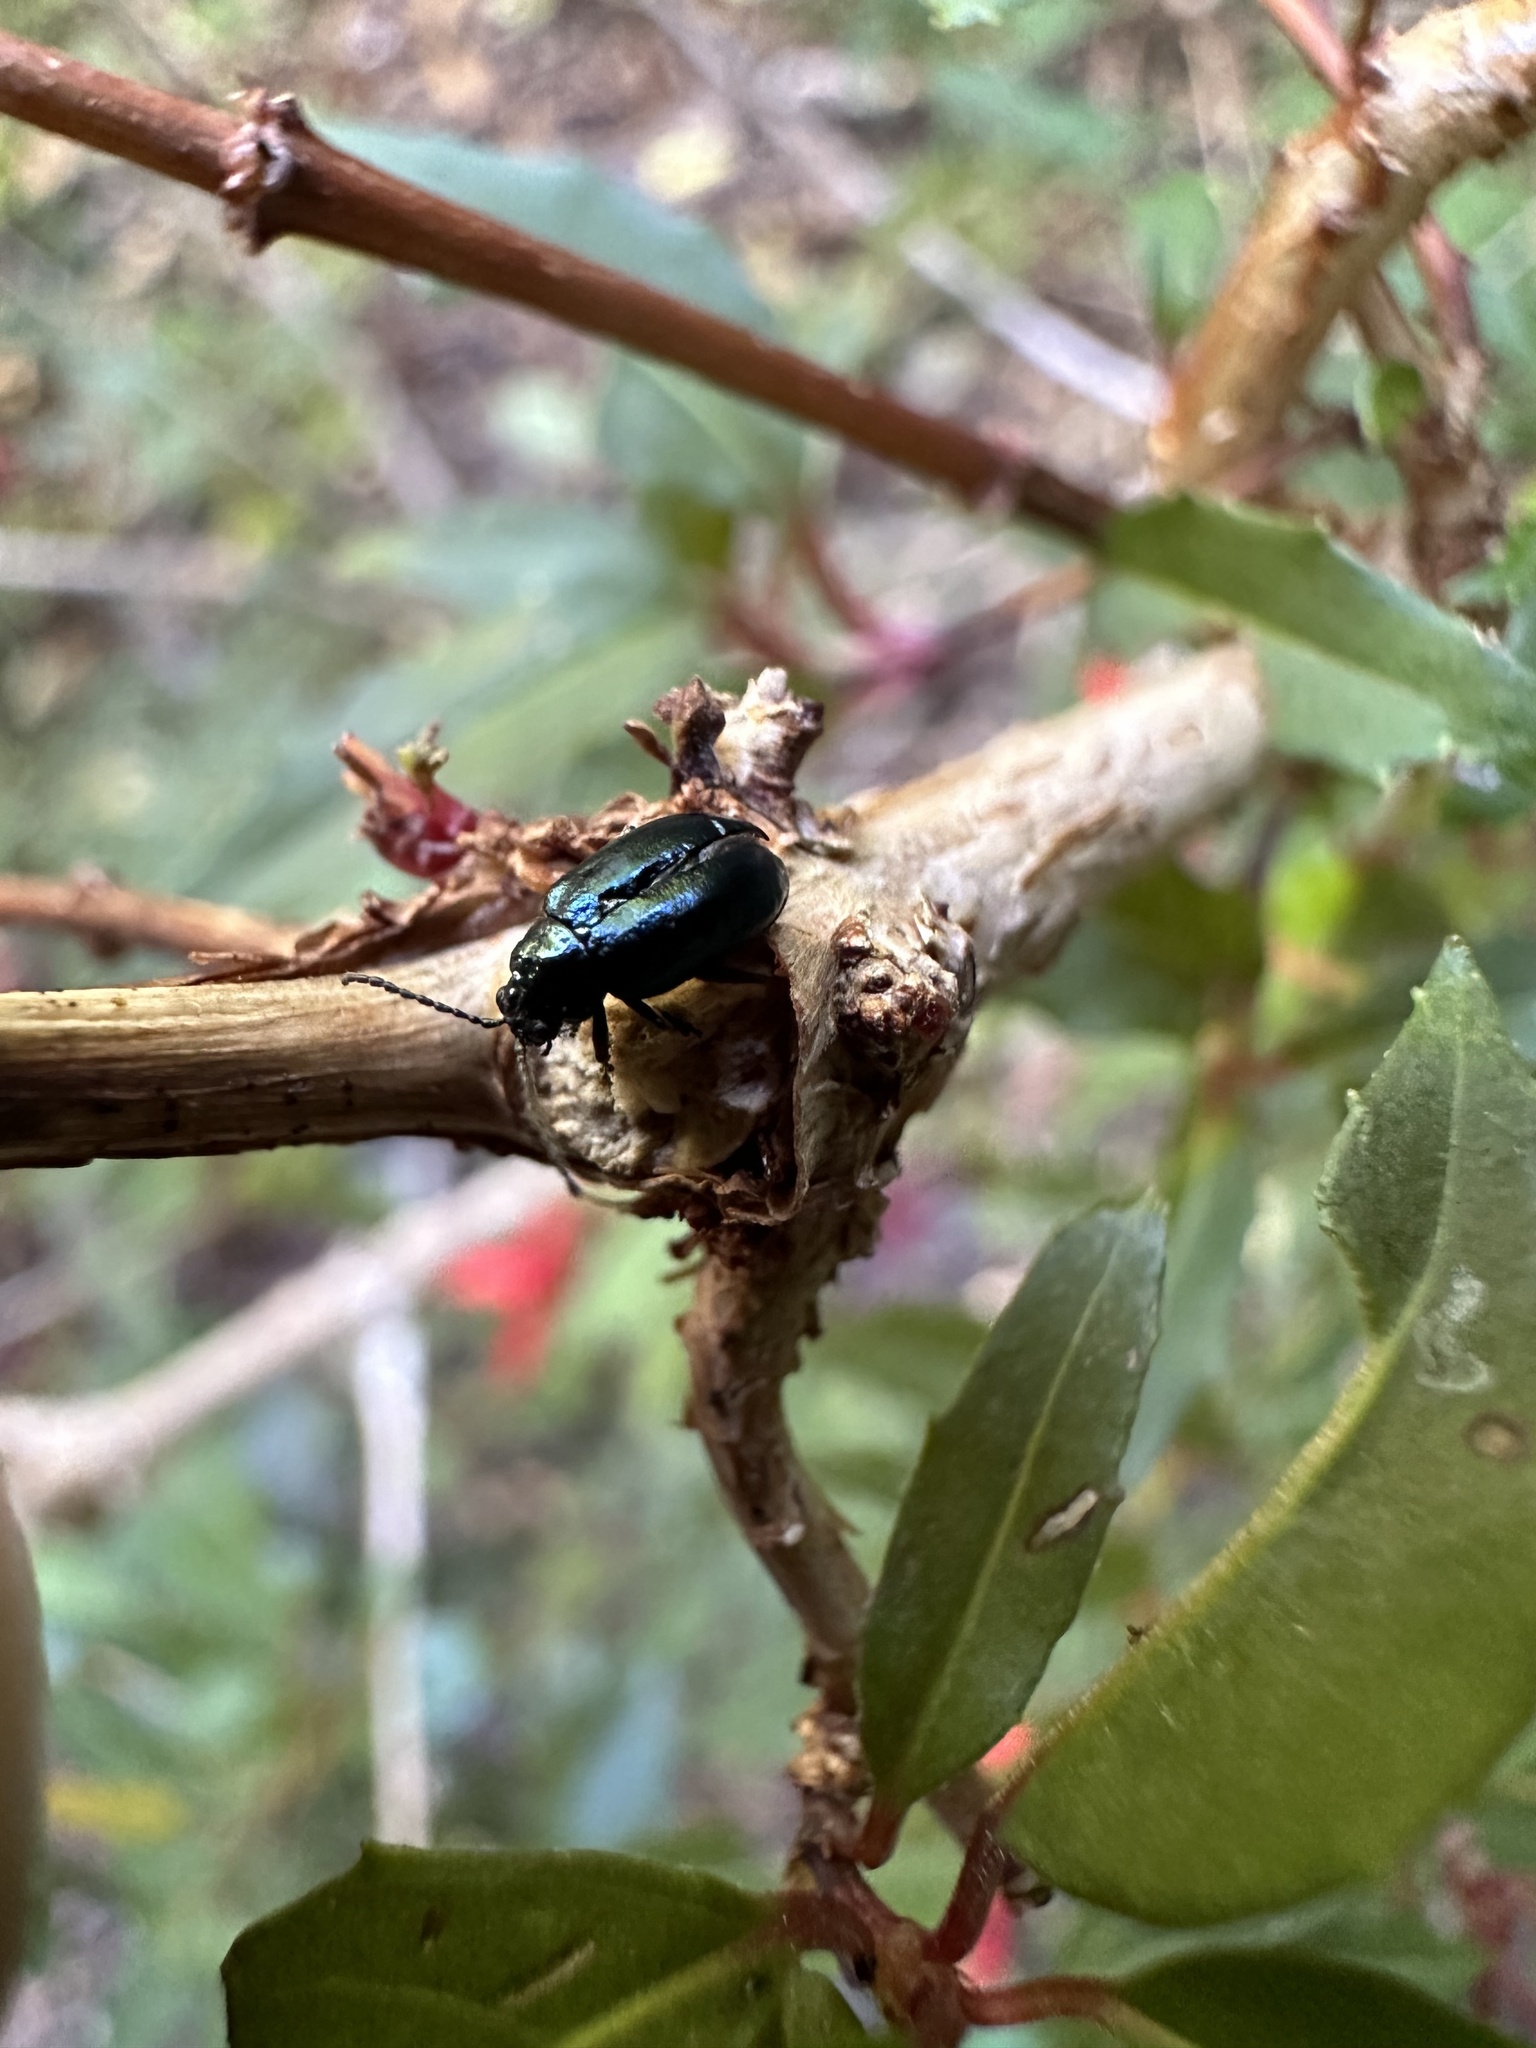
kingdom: Animalia
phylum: Arthropoda
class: Insecta
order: Coleoptera
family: Chrysomelidae
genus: Lysathia
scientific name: Lysathia
